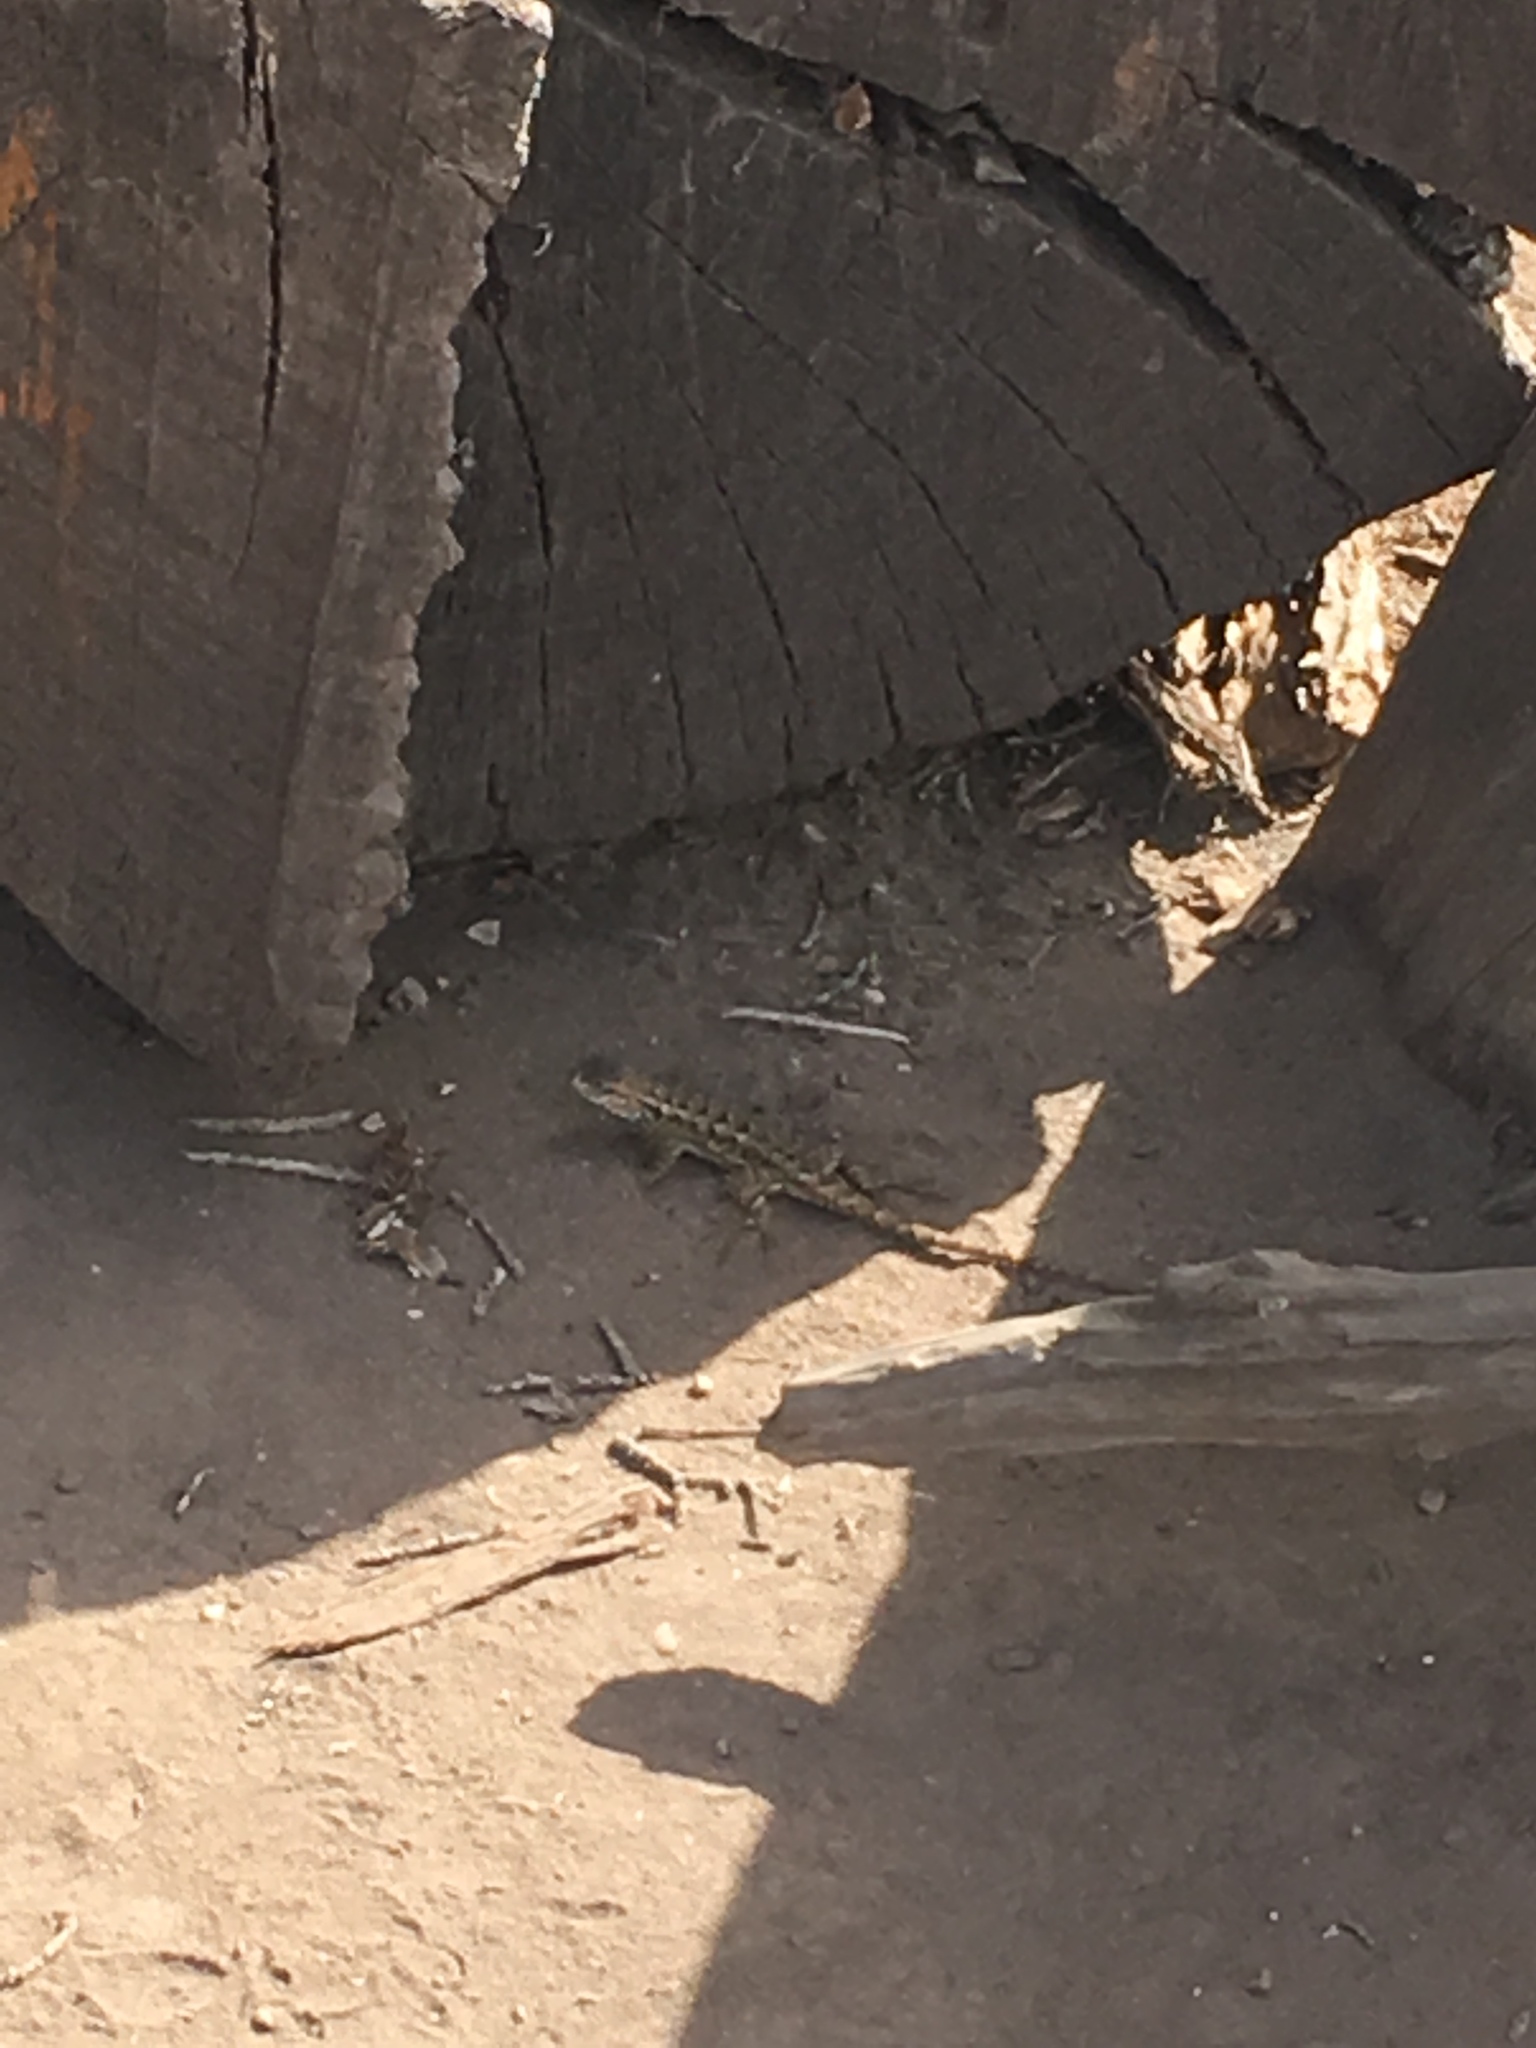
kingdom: Animalia
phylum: Chordata
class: Squamata
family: Phrynosomatidae
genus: Sceloporus
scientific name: Sceloporus occidentalis
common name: Western fence lizard
